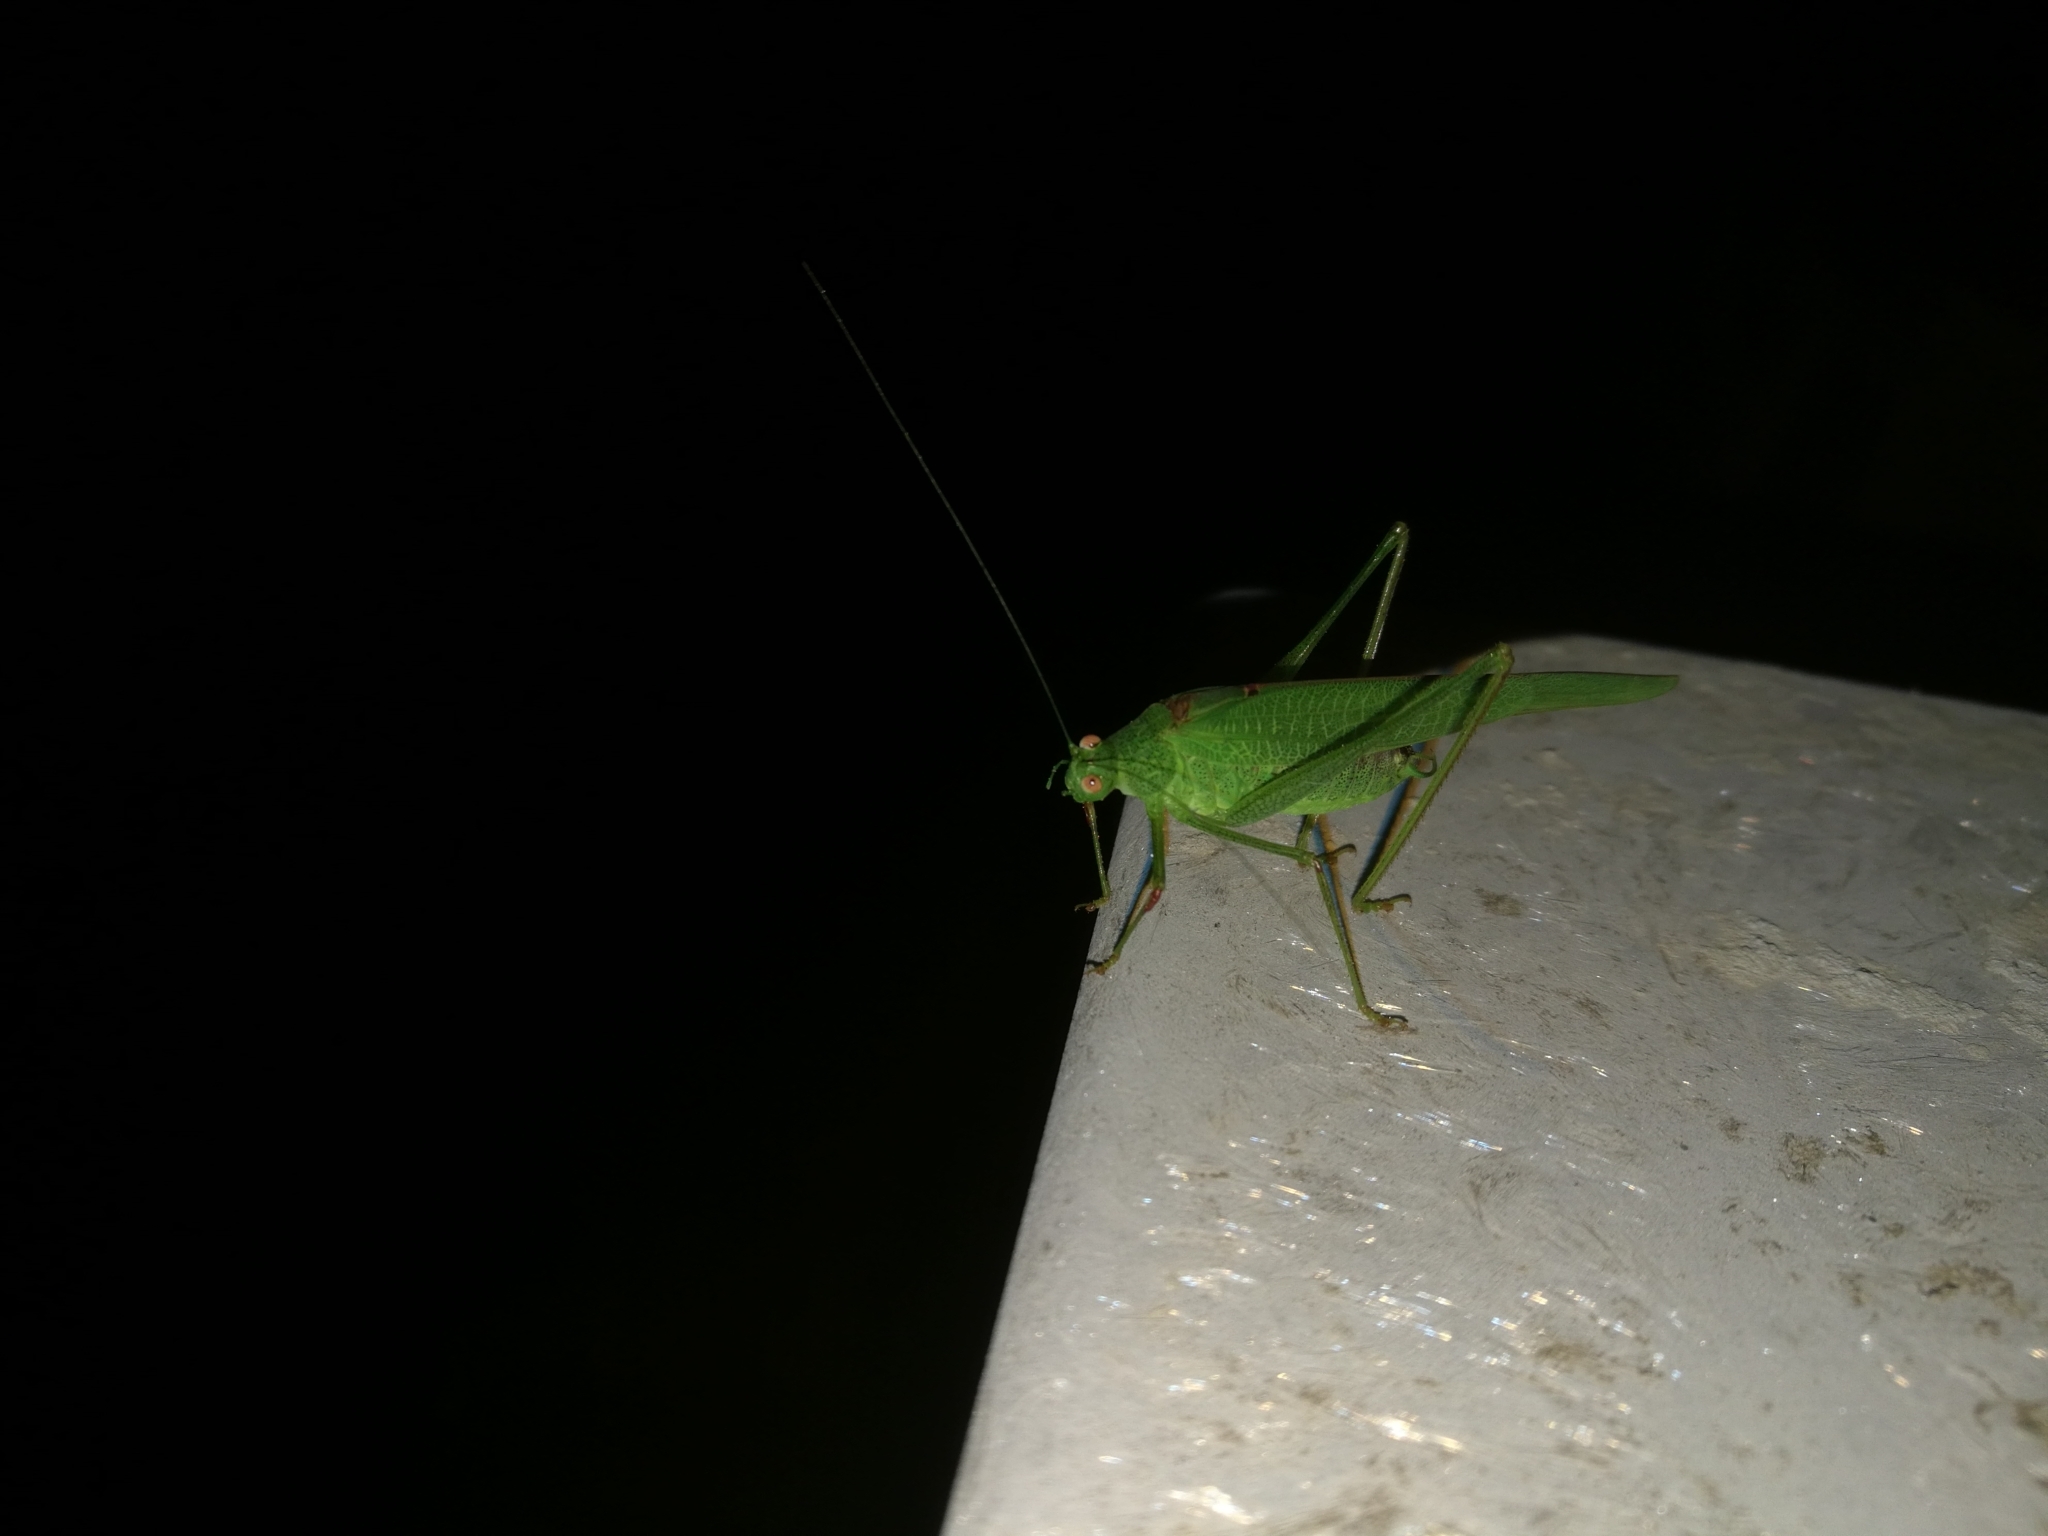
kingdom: Animalia
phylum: Arthropoda
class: Insecta
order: Orthoptera
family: Tettigoniidae
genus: Phaneroptera
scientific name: Phaneroptera nana
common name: Southern sickle bush-cricket
